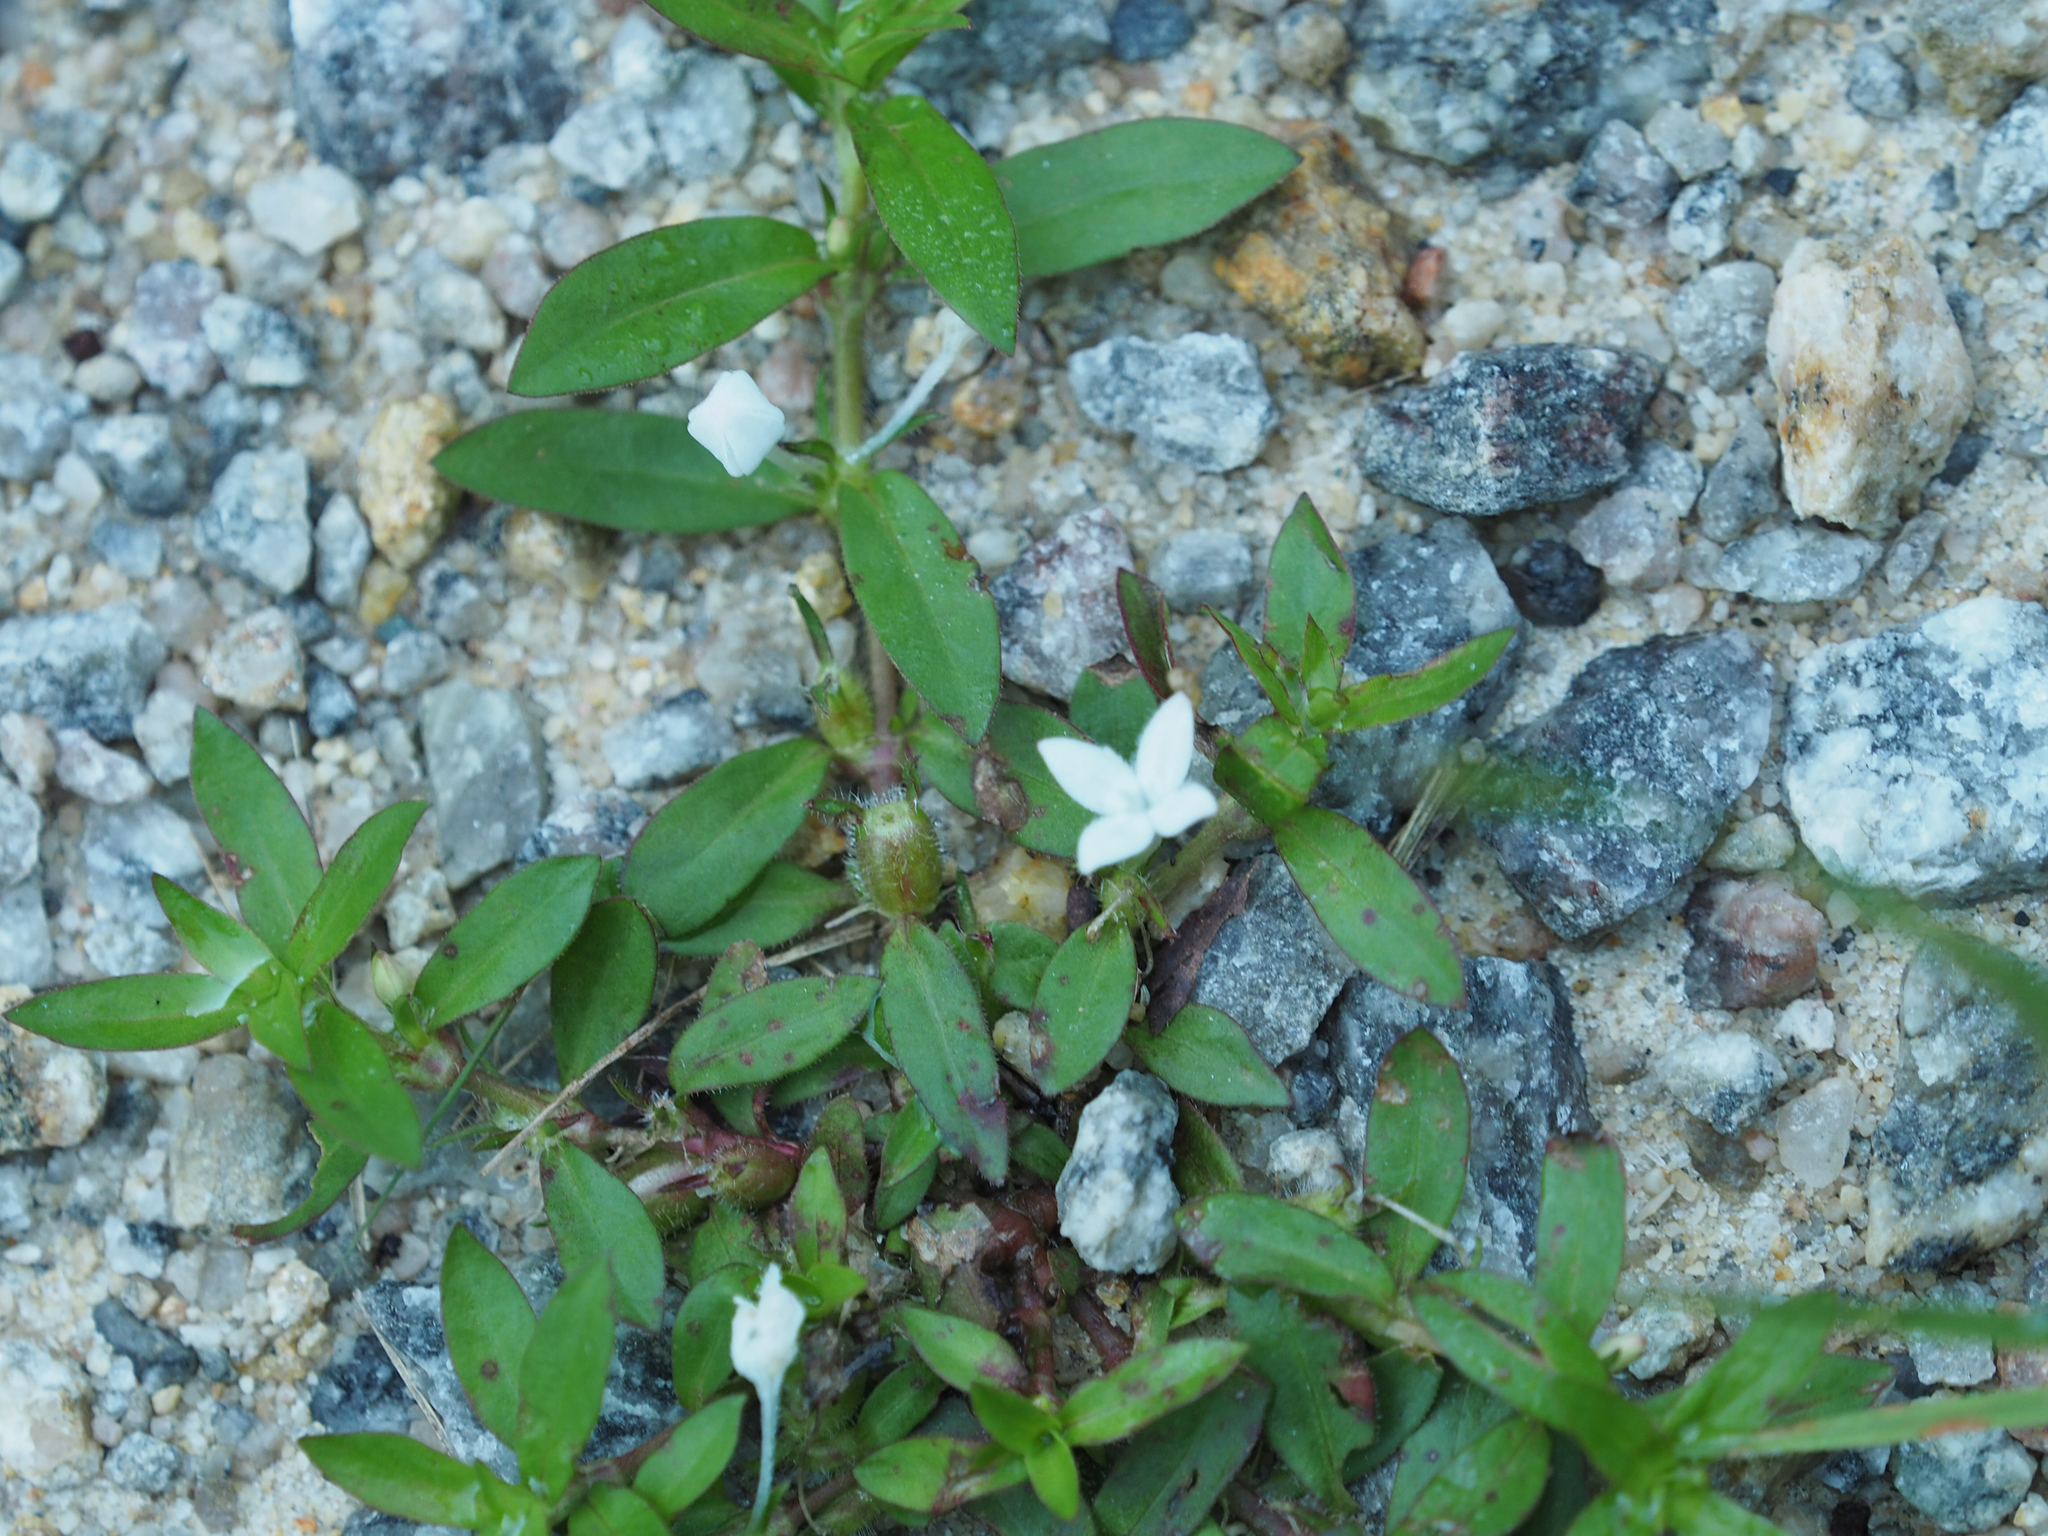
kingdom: Plantae
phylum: Tracheophyta
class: Magnoliopsida
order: Gentianales
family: Rubiaceae
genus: Diodia
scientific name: Diodia virginiana
